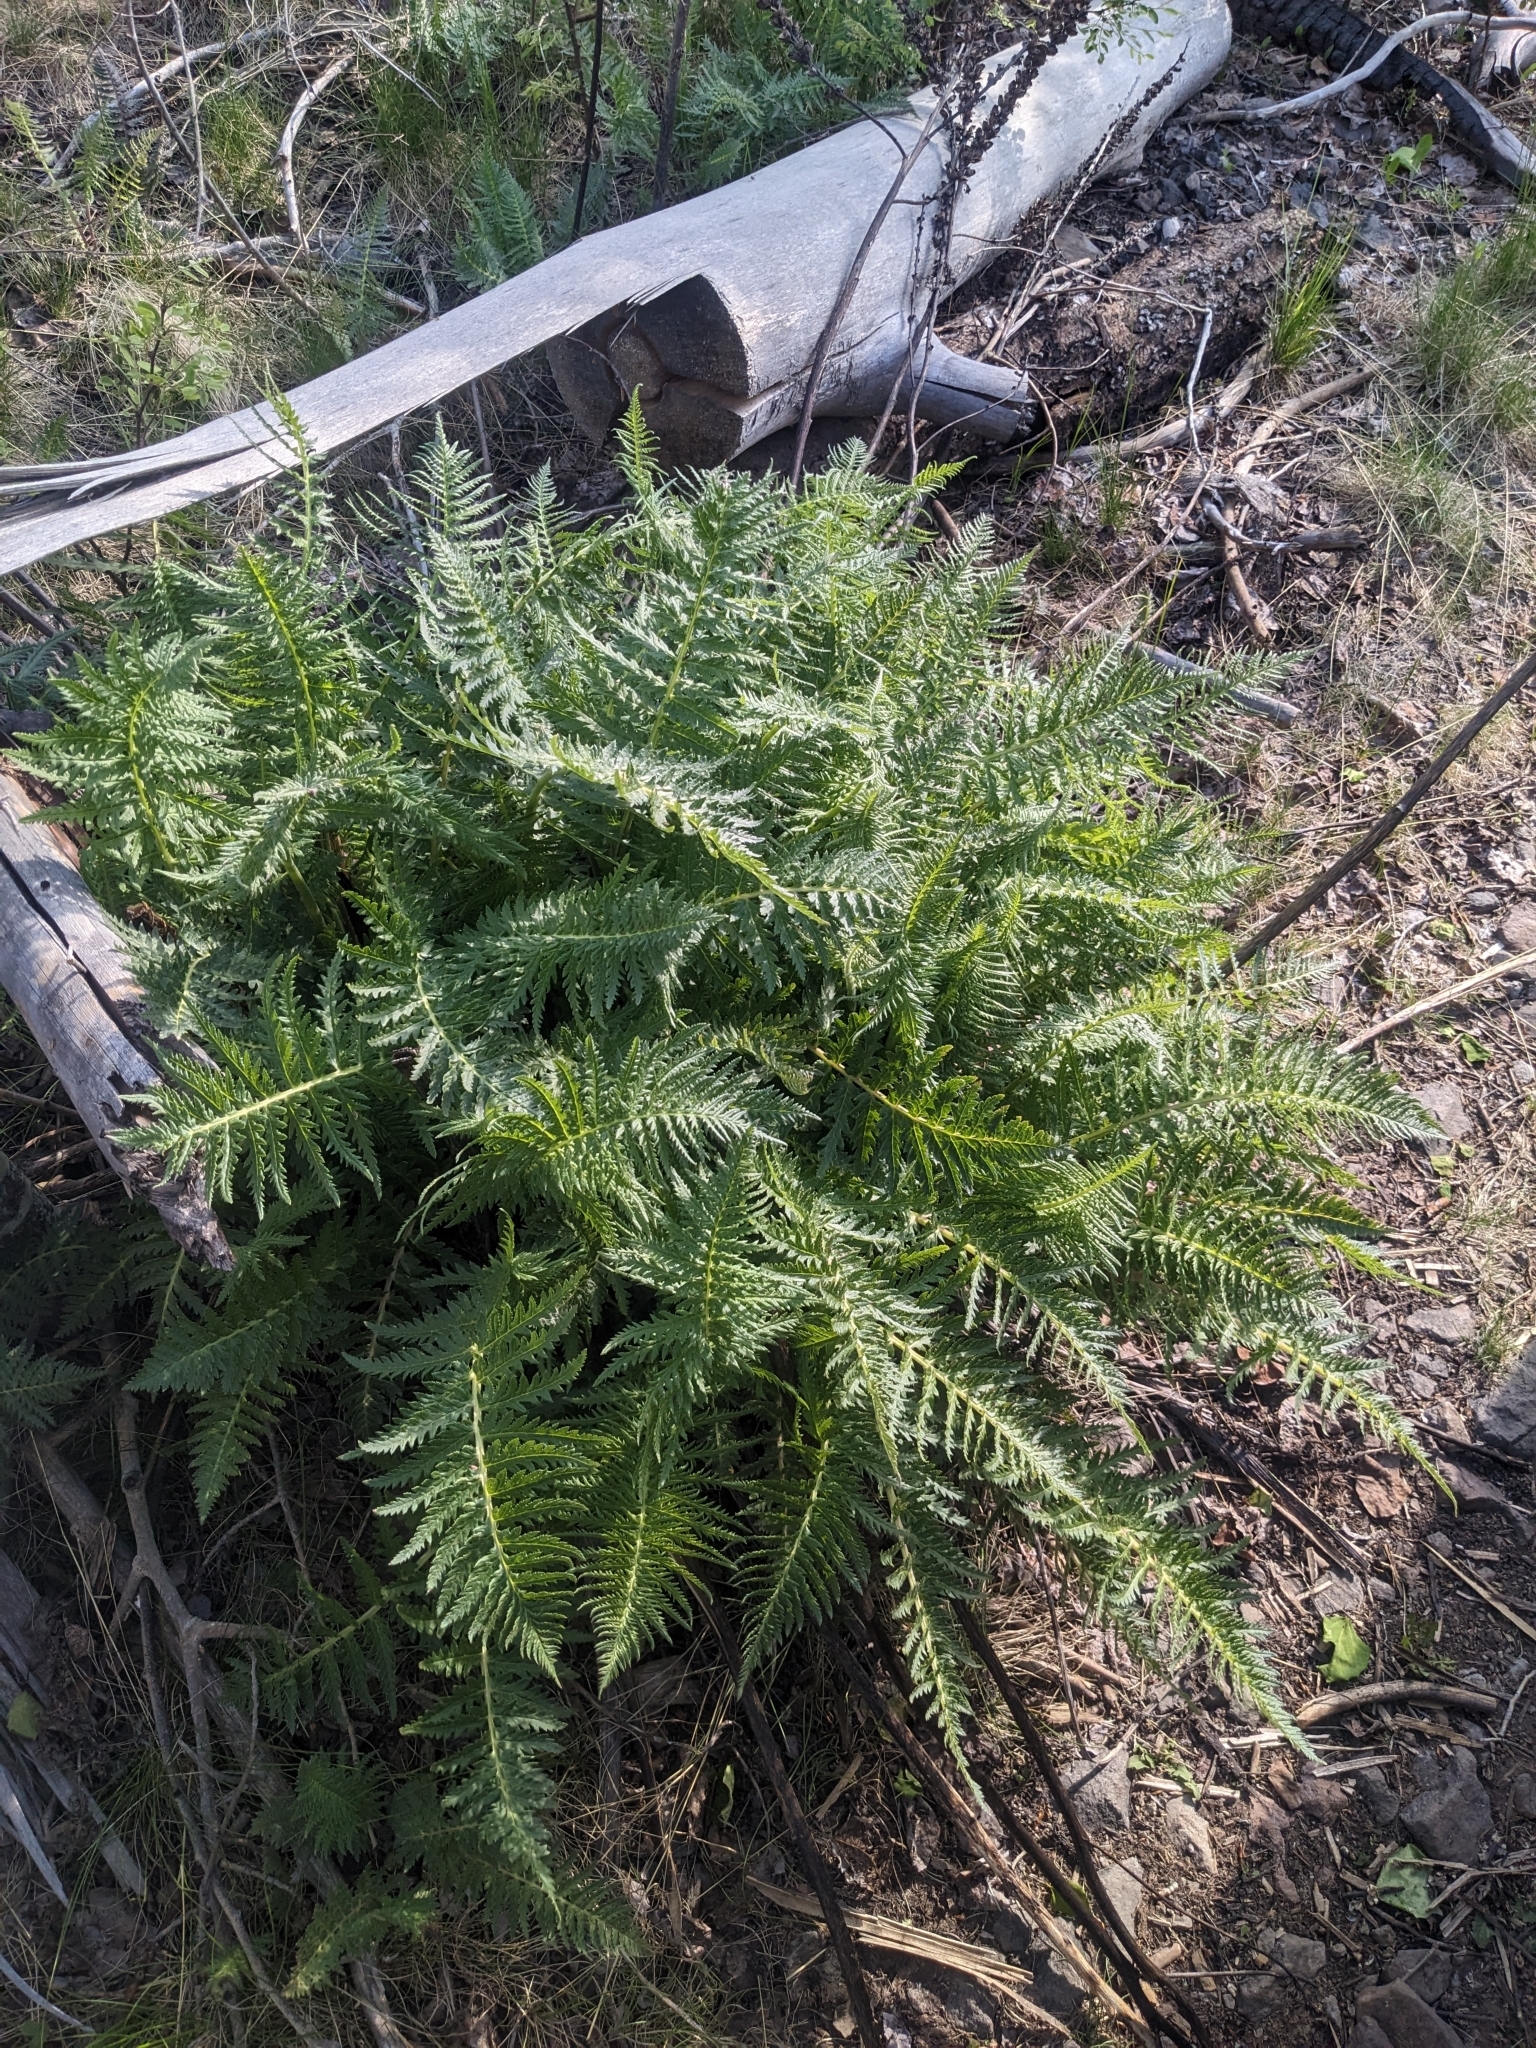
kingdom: Plantae
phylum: Tracheophyta
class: Magnoliopsida
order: Lamiales
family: Orobanchaceae
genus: Pedicularis
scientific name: Pedicularis procera
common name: Gray's lousewort
